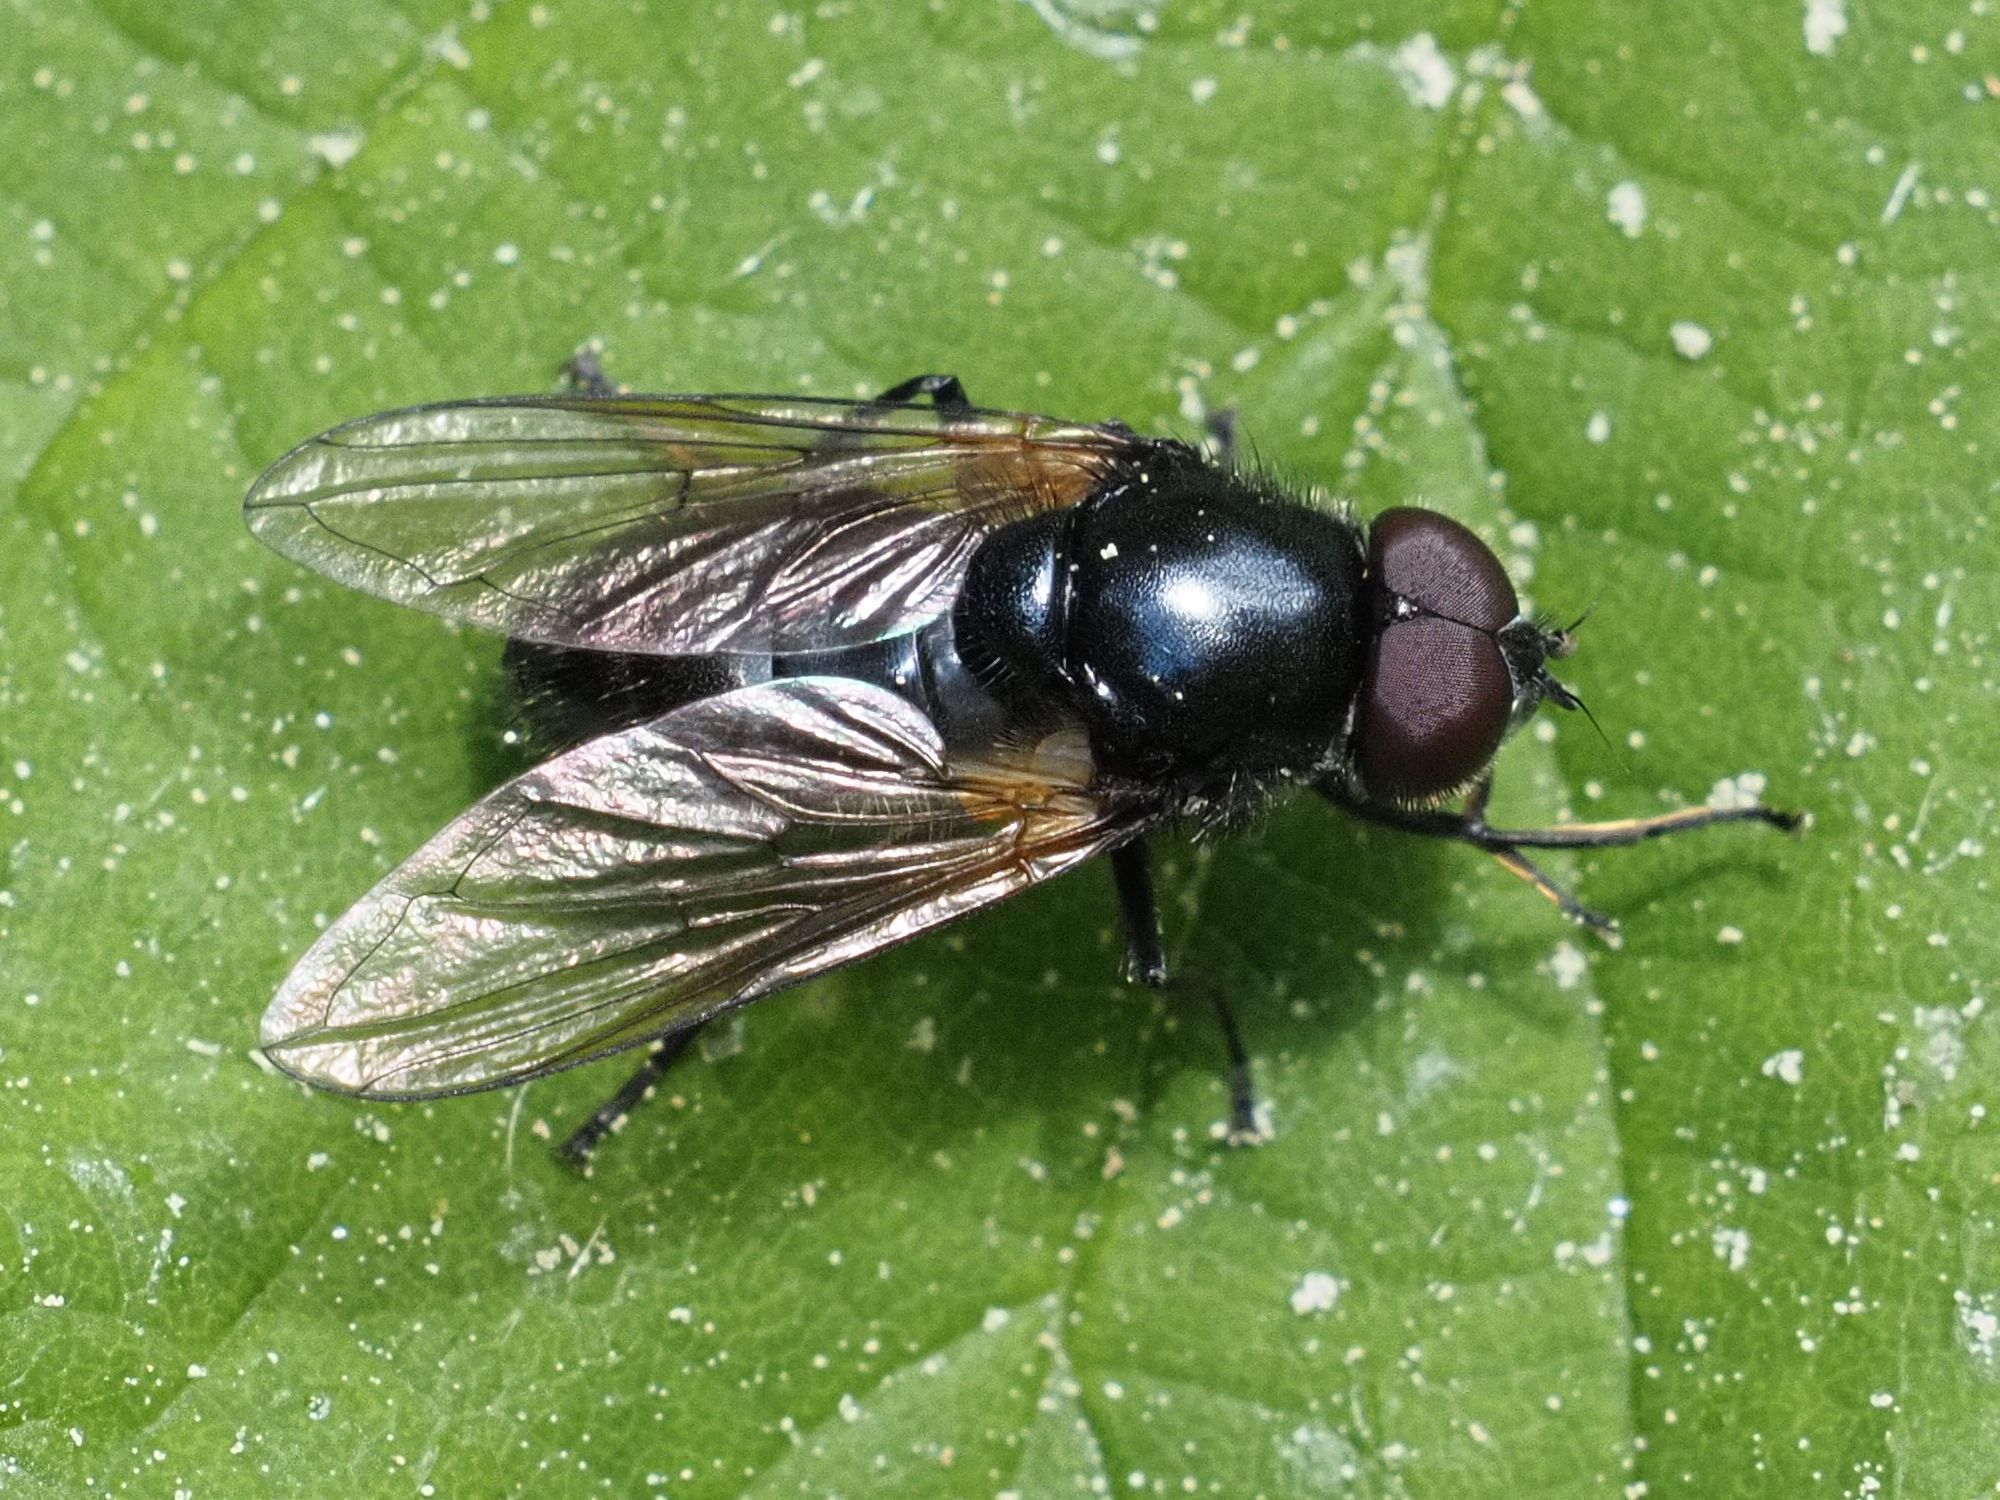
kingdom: Animalia
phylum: Arthropoda
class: Insecta
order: Diptera
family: Syrphidae
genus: Cheilosia
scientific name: Cheilosia impressa
